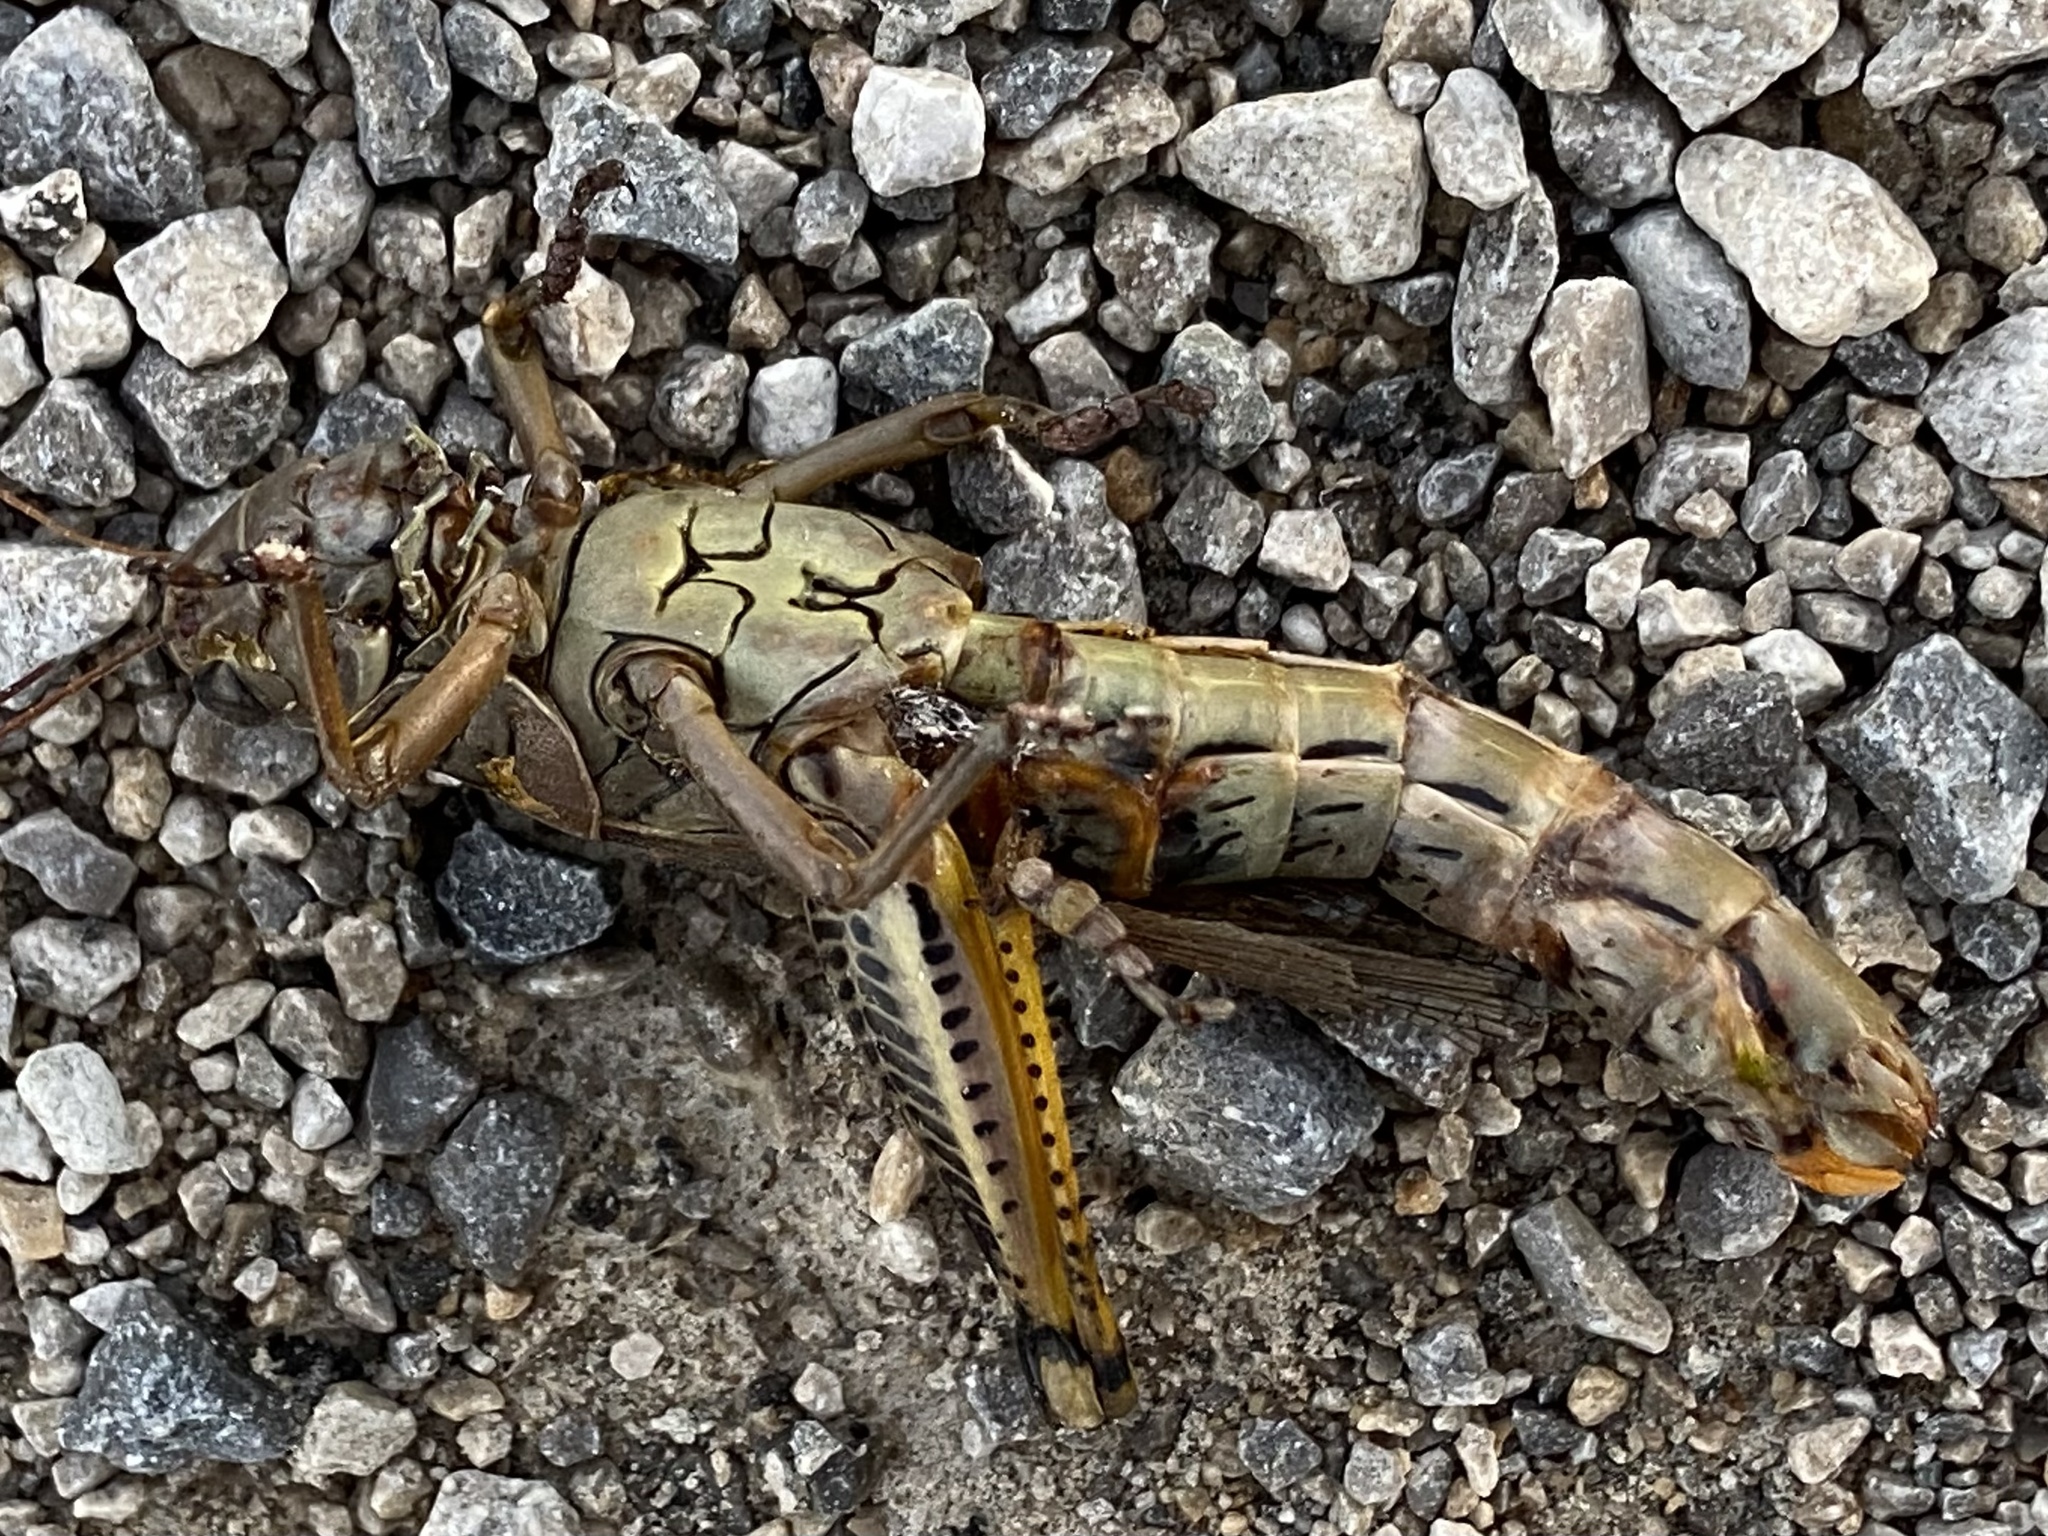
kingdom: Animalia
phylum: Arthropoda
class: Insecta
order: Orthoptera
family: Acrididae
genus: Melanoplus
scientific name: Melanoplus differentialis
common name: Differential grasshopper
